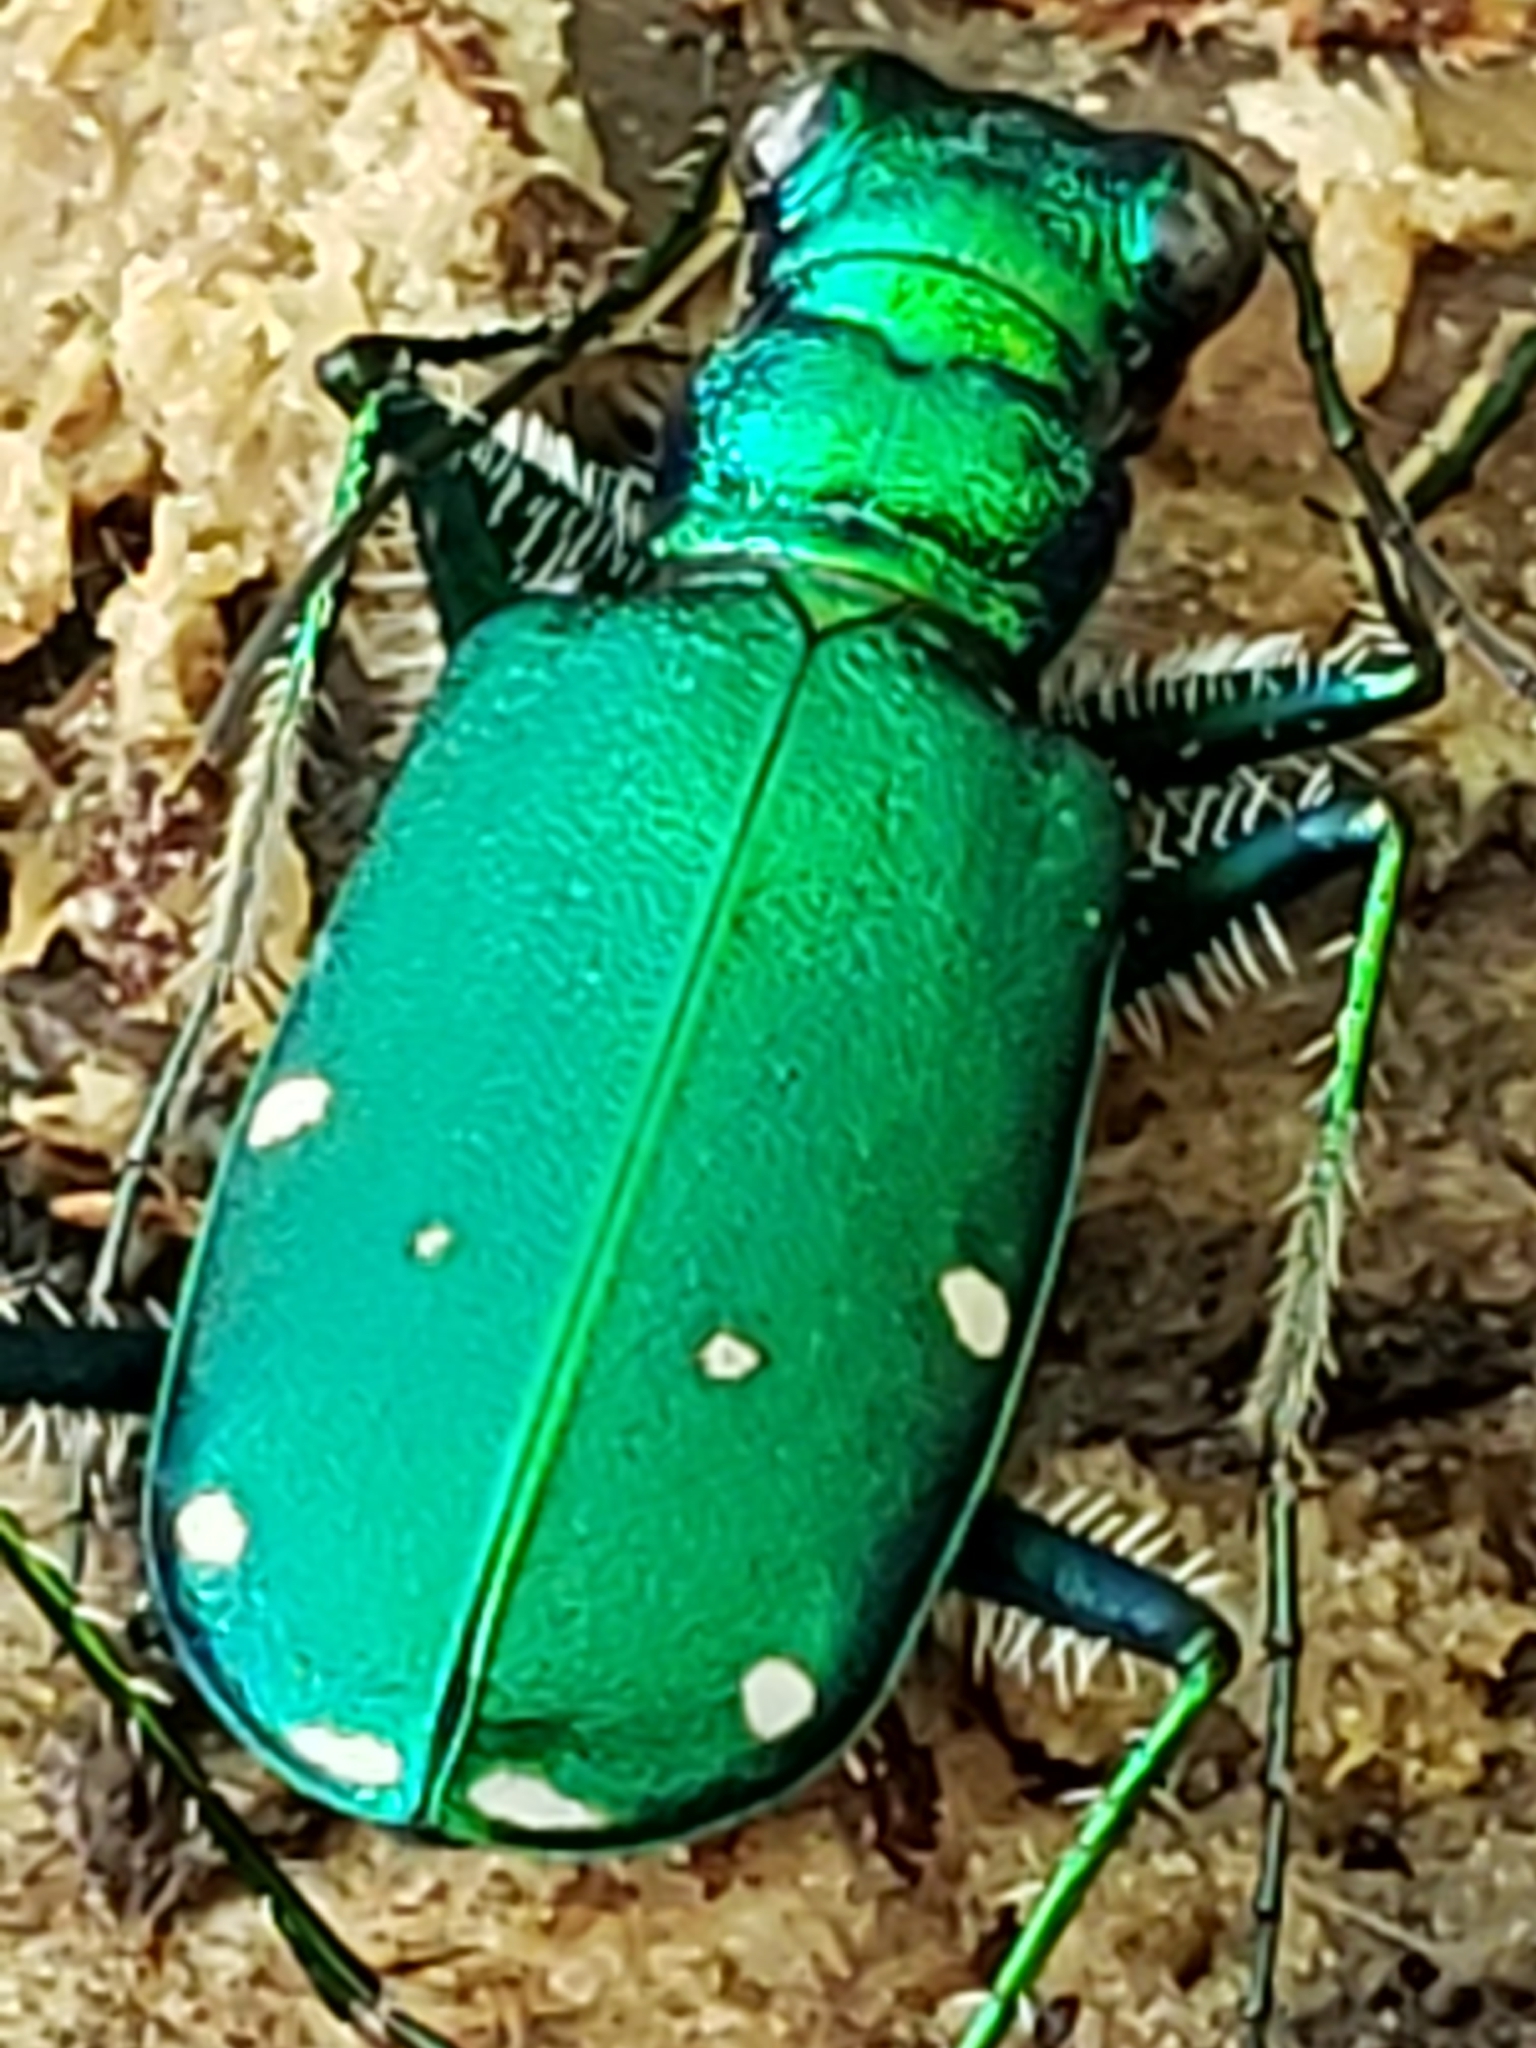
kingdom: Animalia
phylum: Arthropoda
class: Insecta
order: Coleoptera
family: Carabidae
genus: Cicindela
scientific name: Cicindela sexguttata
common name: Six-spotted tiger beetle
